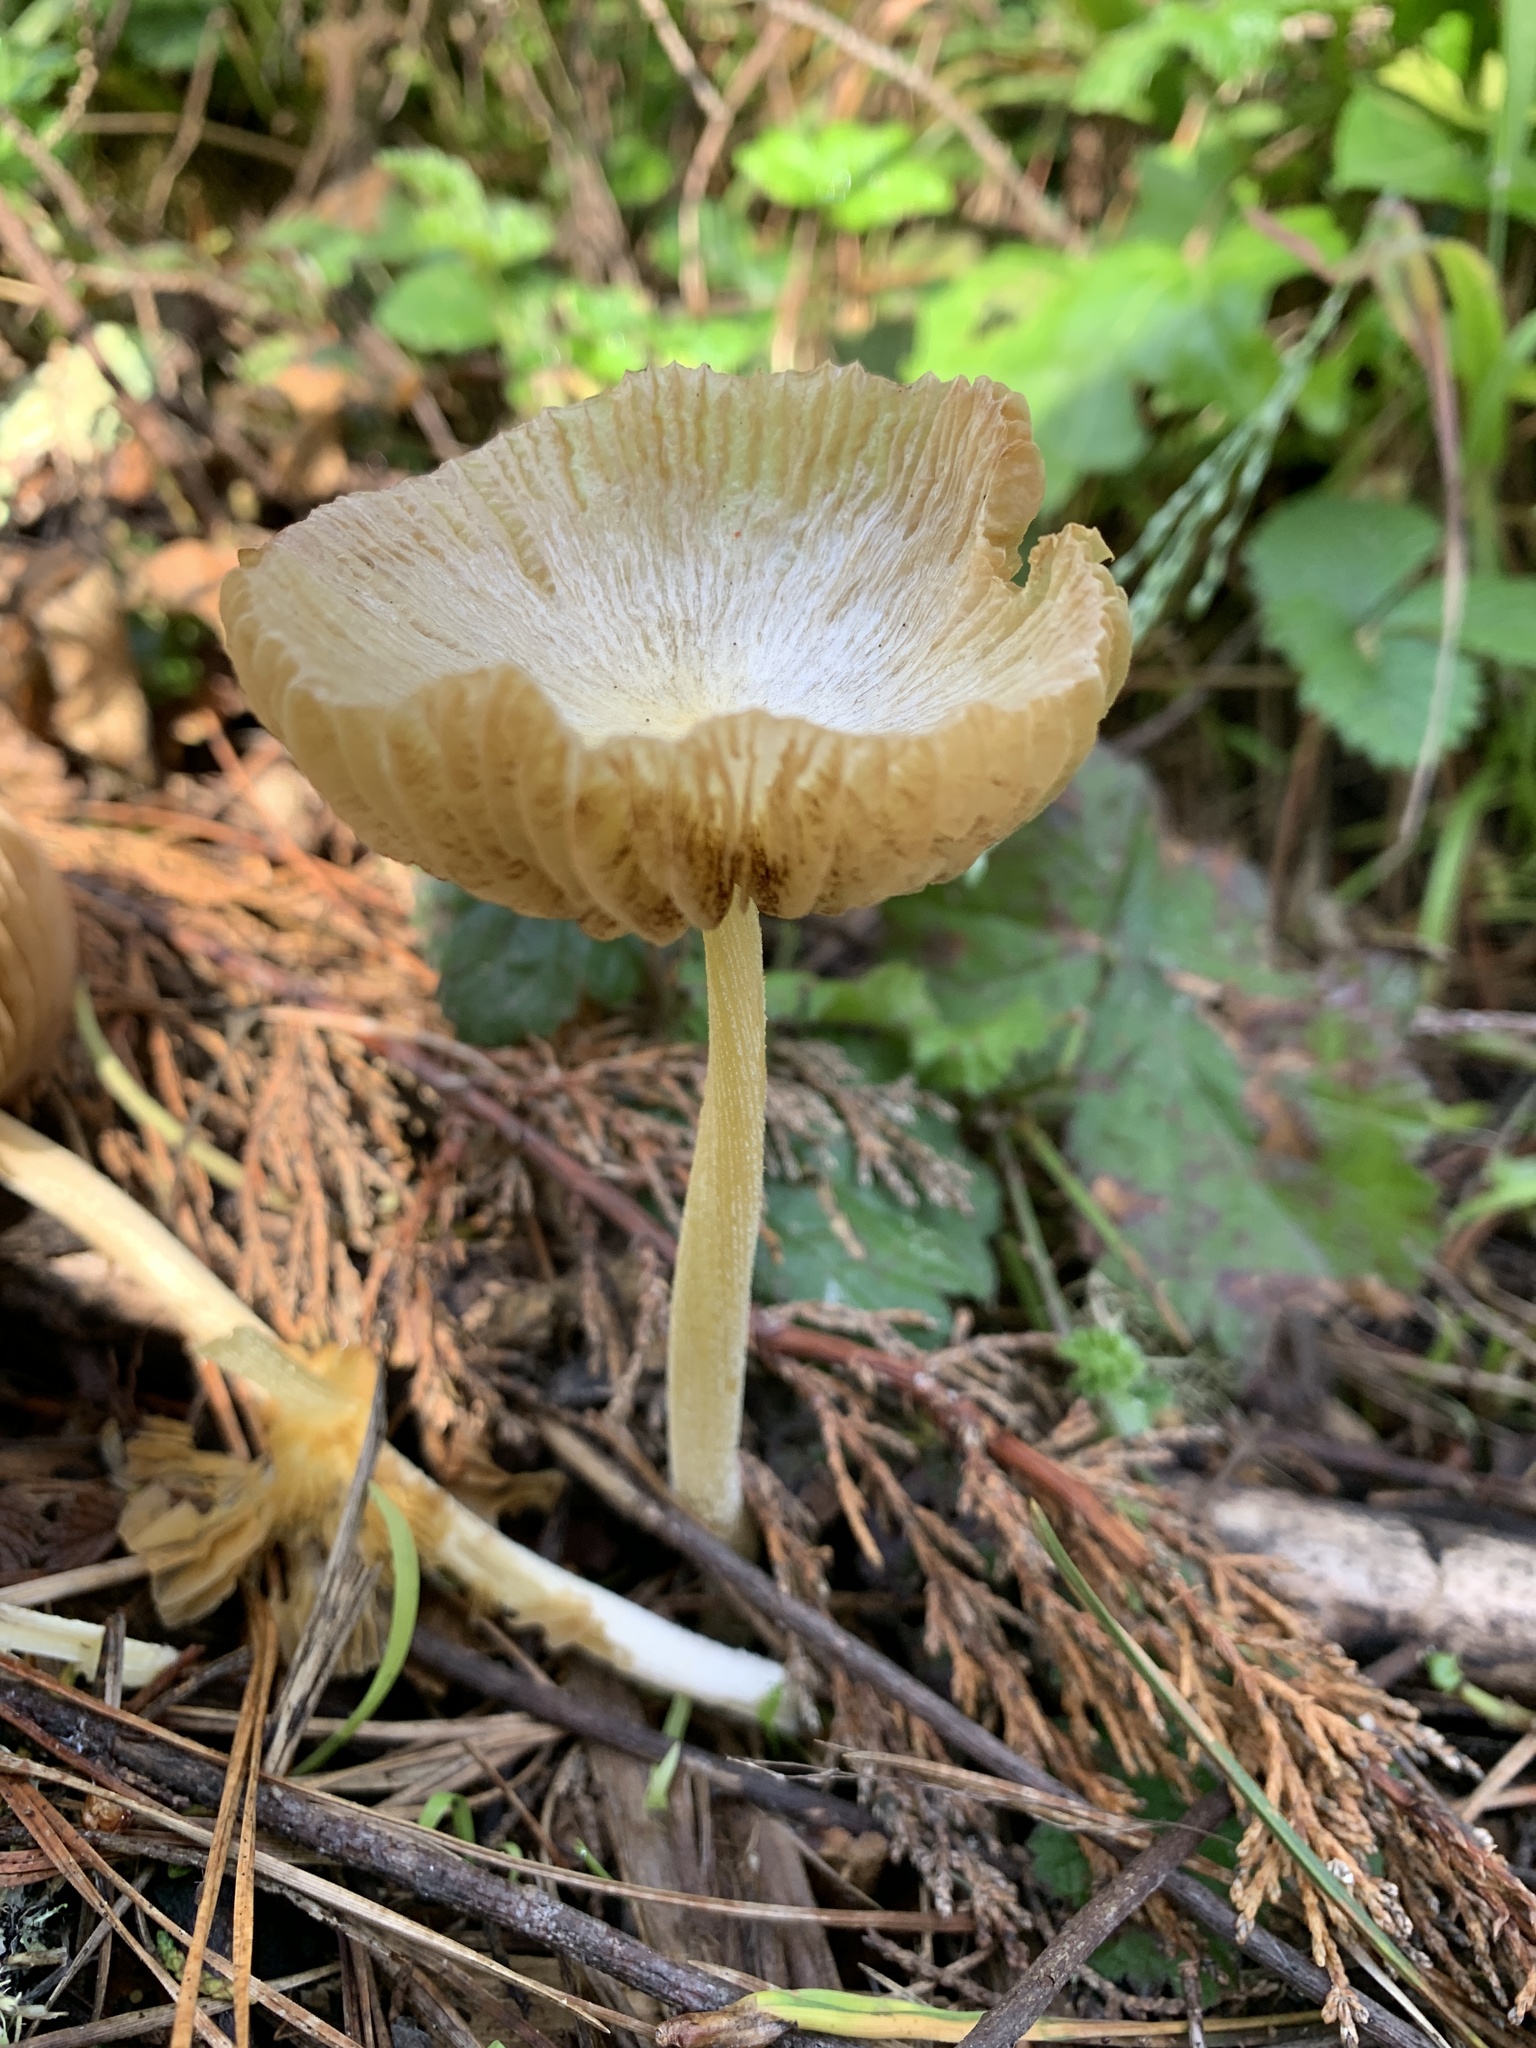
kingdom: Fungi
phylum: Basidiomycota
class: Agaricomycetes
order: Agaricales
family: Bolbitiaceae
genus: Bolbitius
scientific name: Bolbitius titubans
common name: Yellow fieldcap
